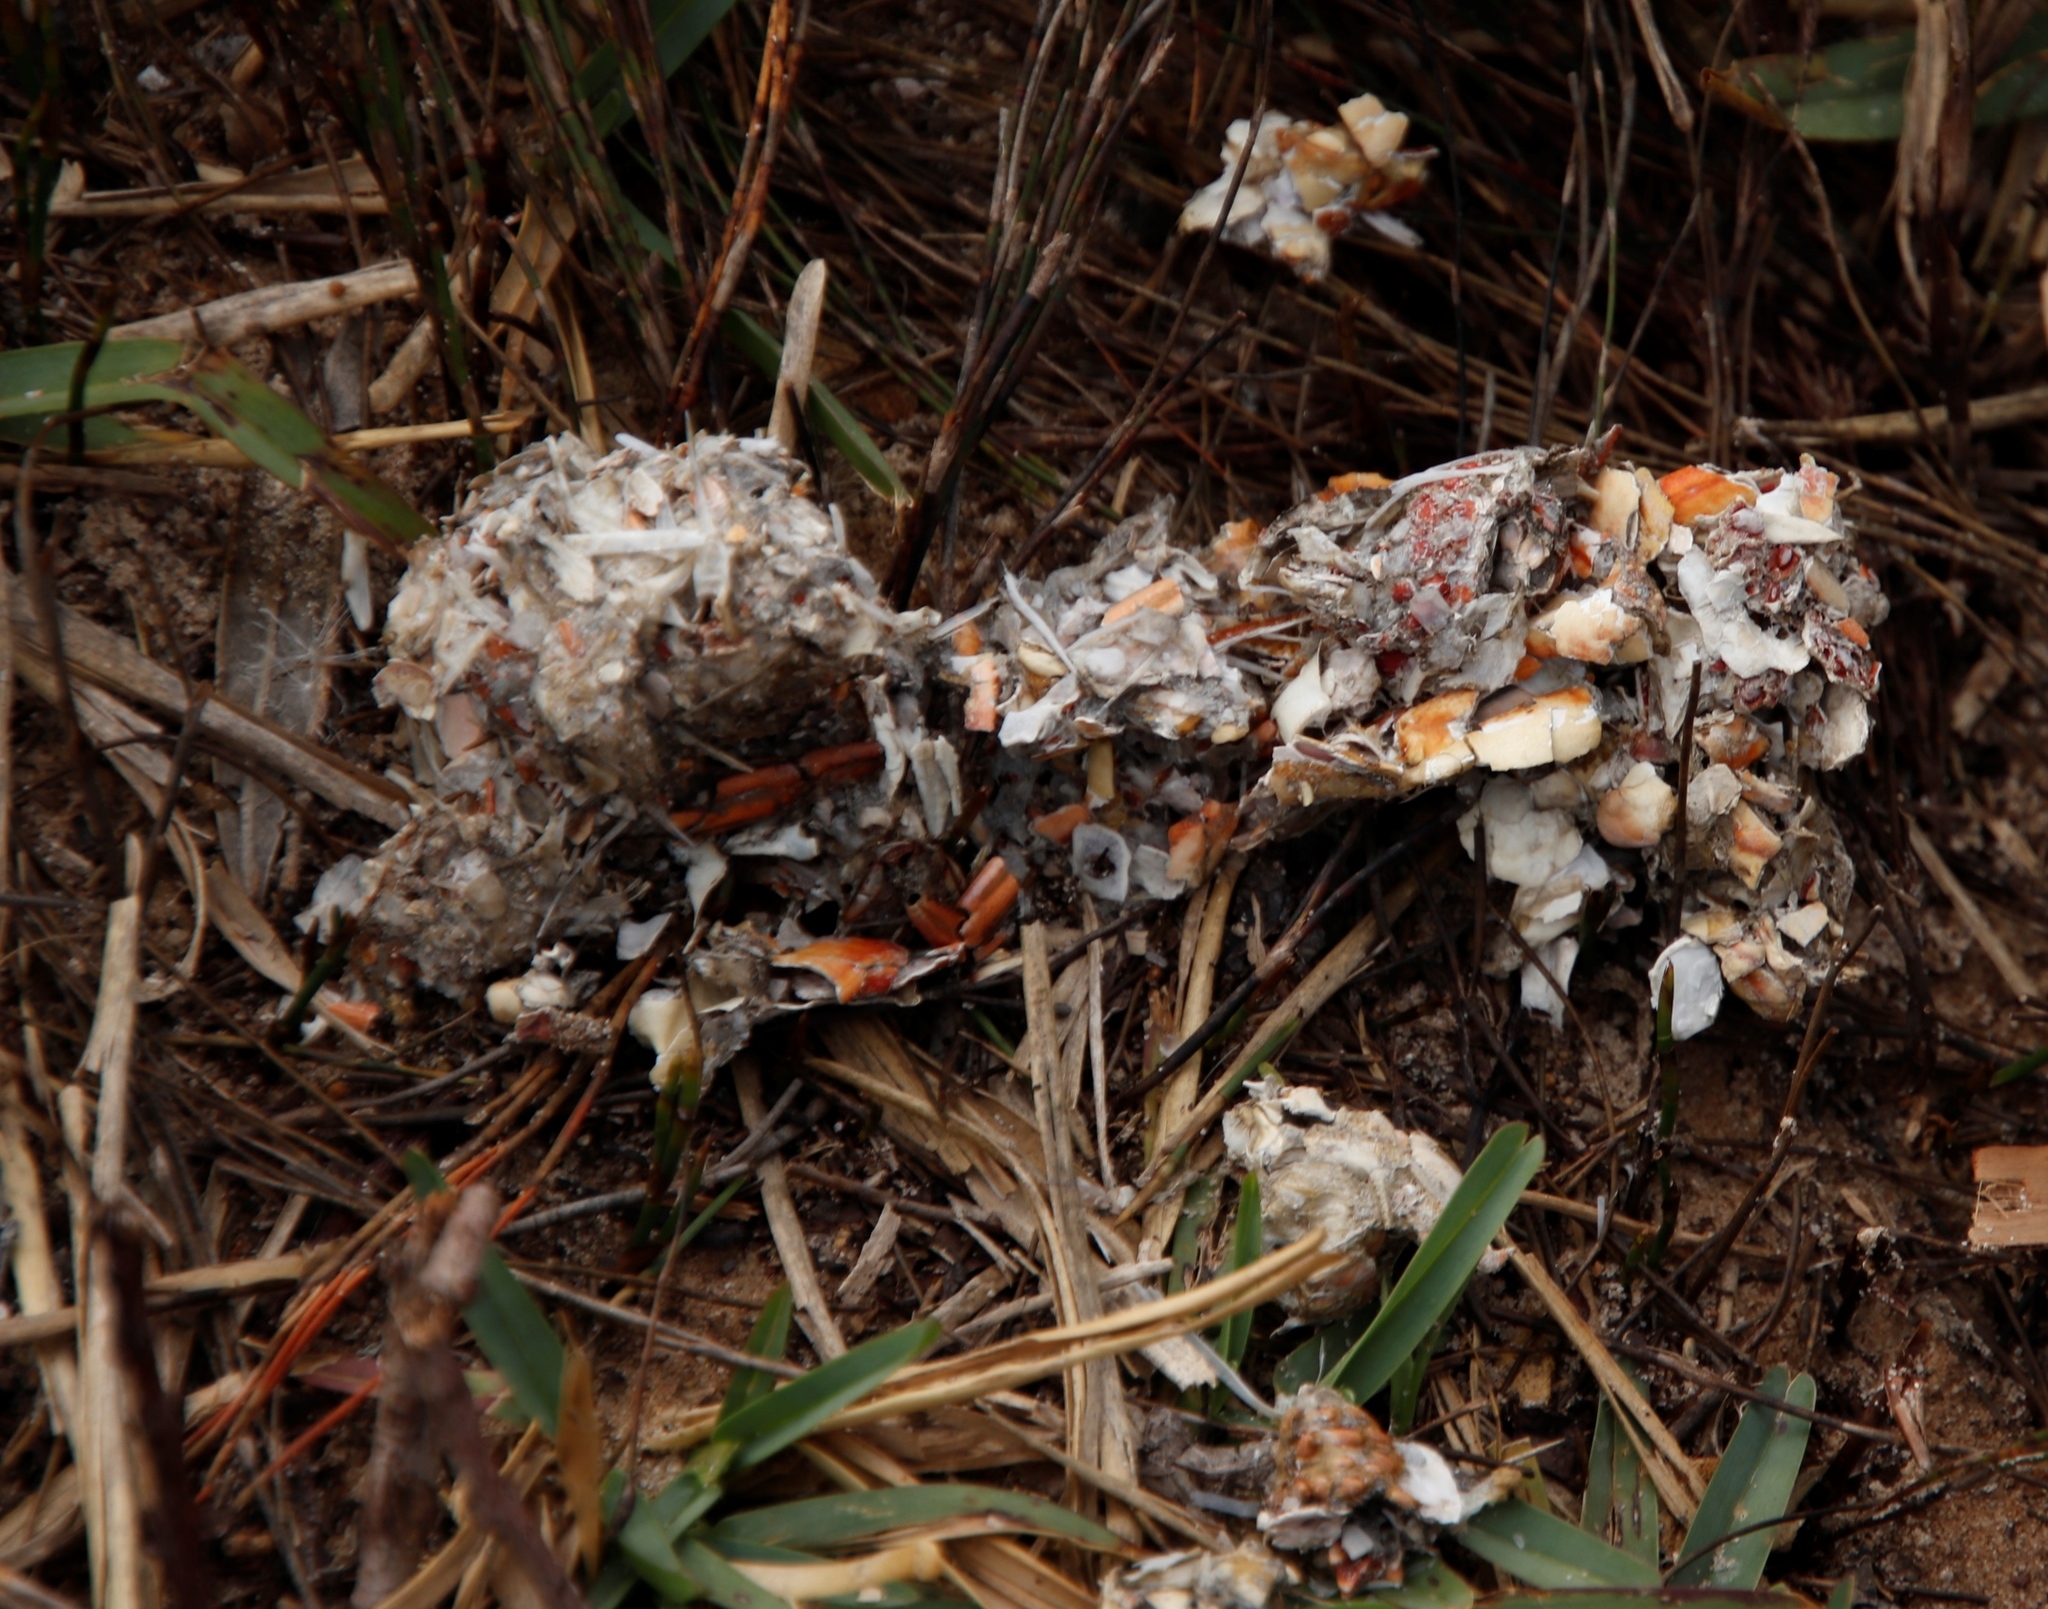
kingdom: Animalia
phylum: Chordata
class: Mammalia
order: Carnivora
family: Mustelidae
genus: Aonyx
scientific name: Aonyx capensis
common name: African clawless otter
